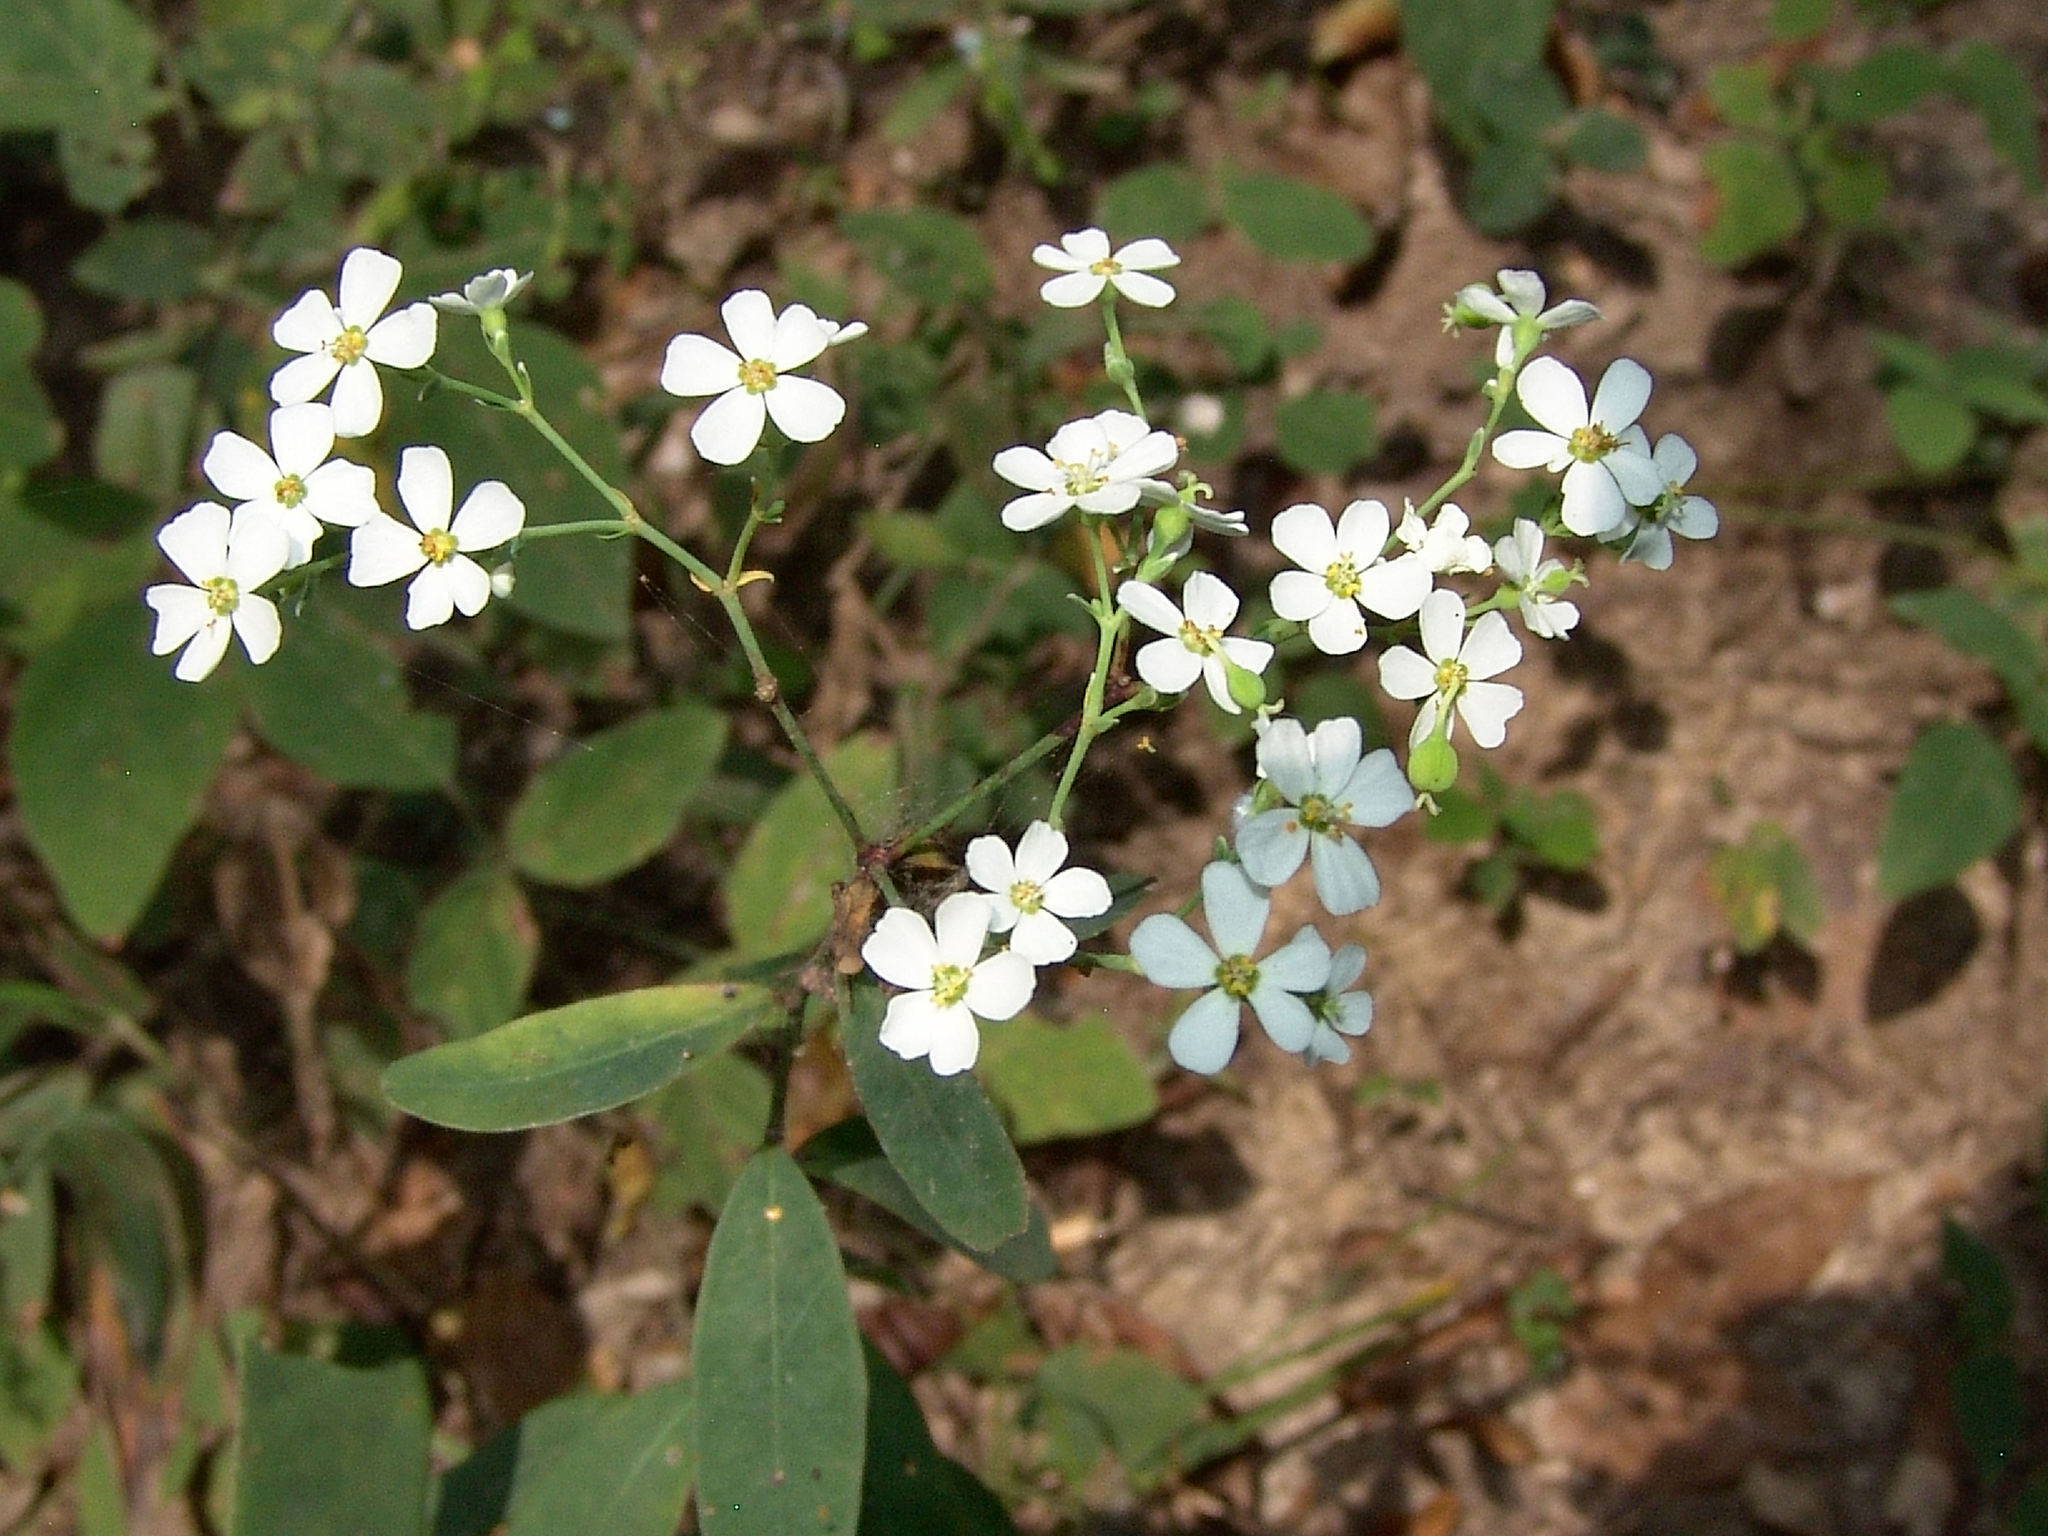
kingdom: Plantae
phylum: Tracheophyta
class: Magnoliopsida
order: Malpighiales
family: Euphorbiaceae
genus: Euphorbia
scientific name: Euphorbia corollata
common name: Flowering spurge
